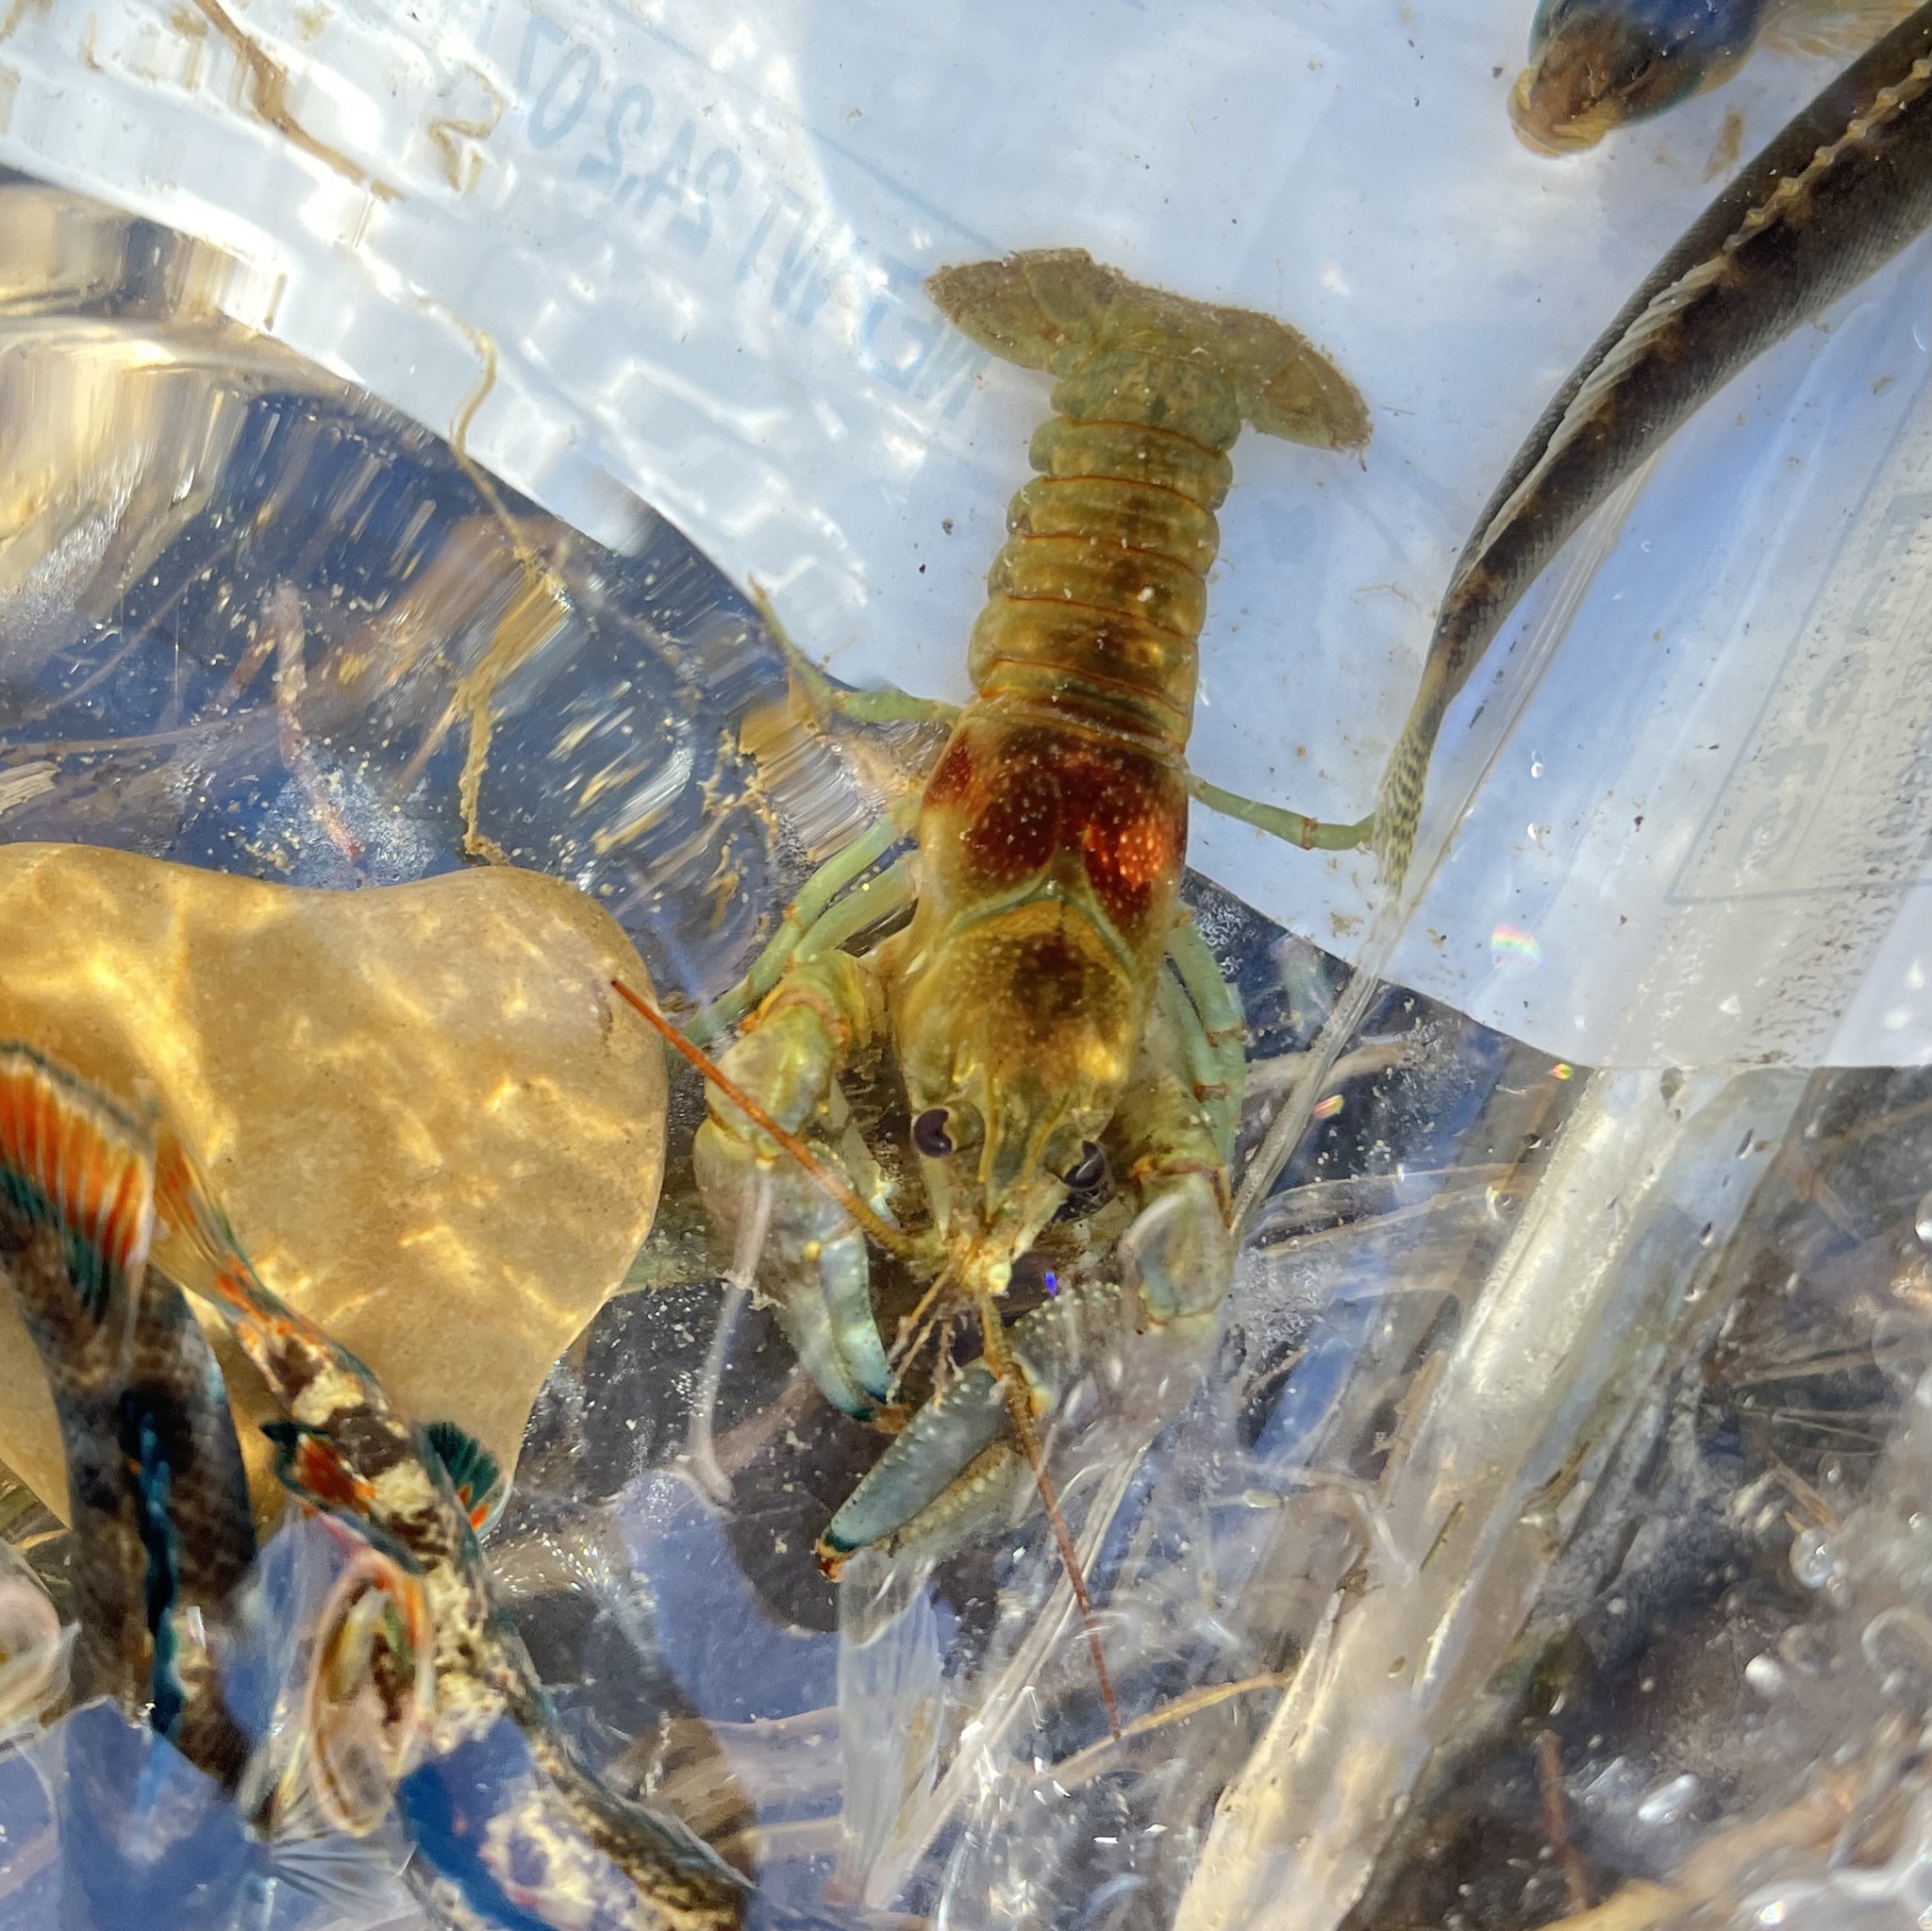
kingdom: Animalia
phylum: Arthropoda
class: Malacostraca
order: Decapoda
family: Cambaridae
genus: Faxonius
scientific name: Faxonius rusticus
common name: Rusty crayfish
